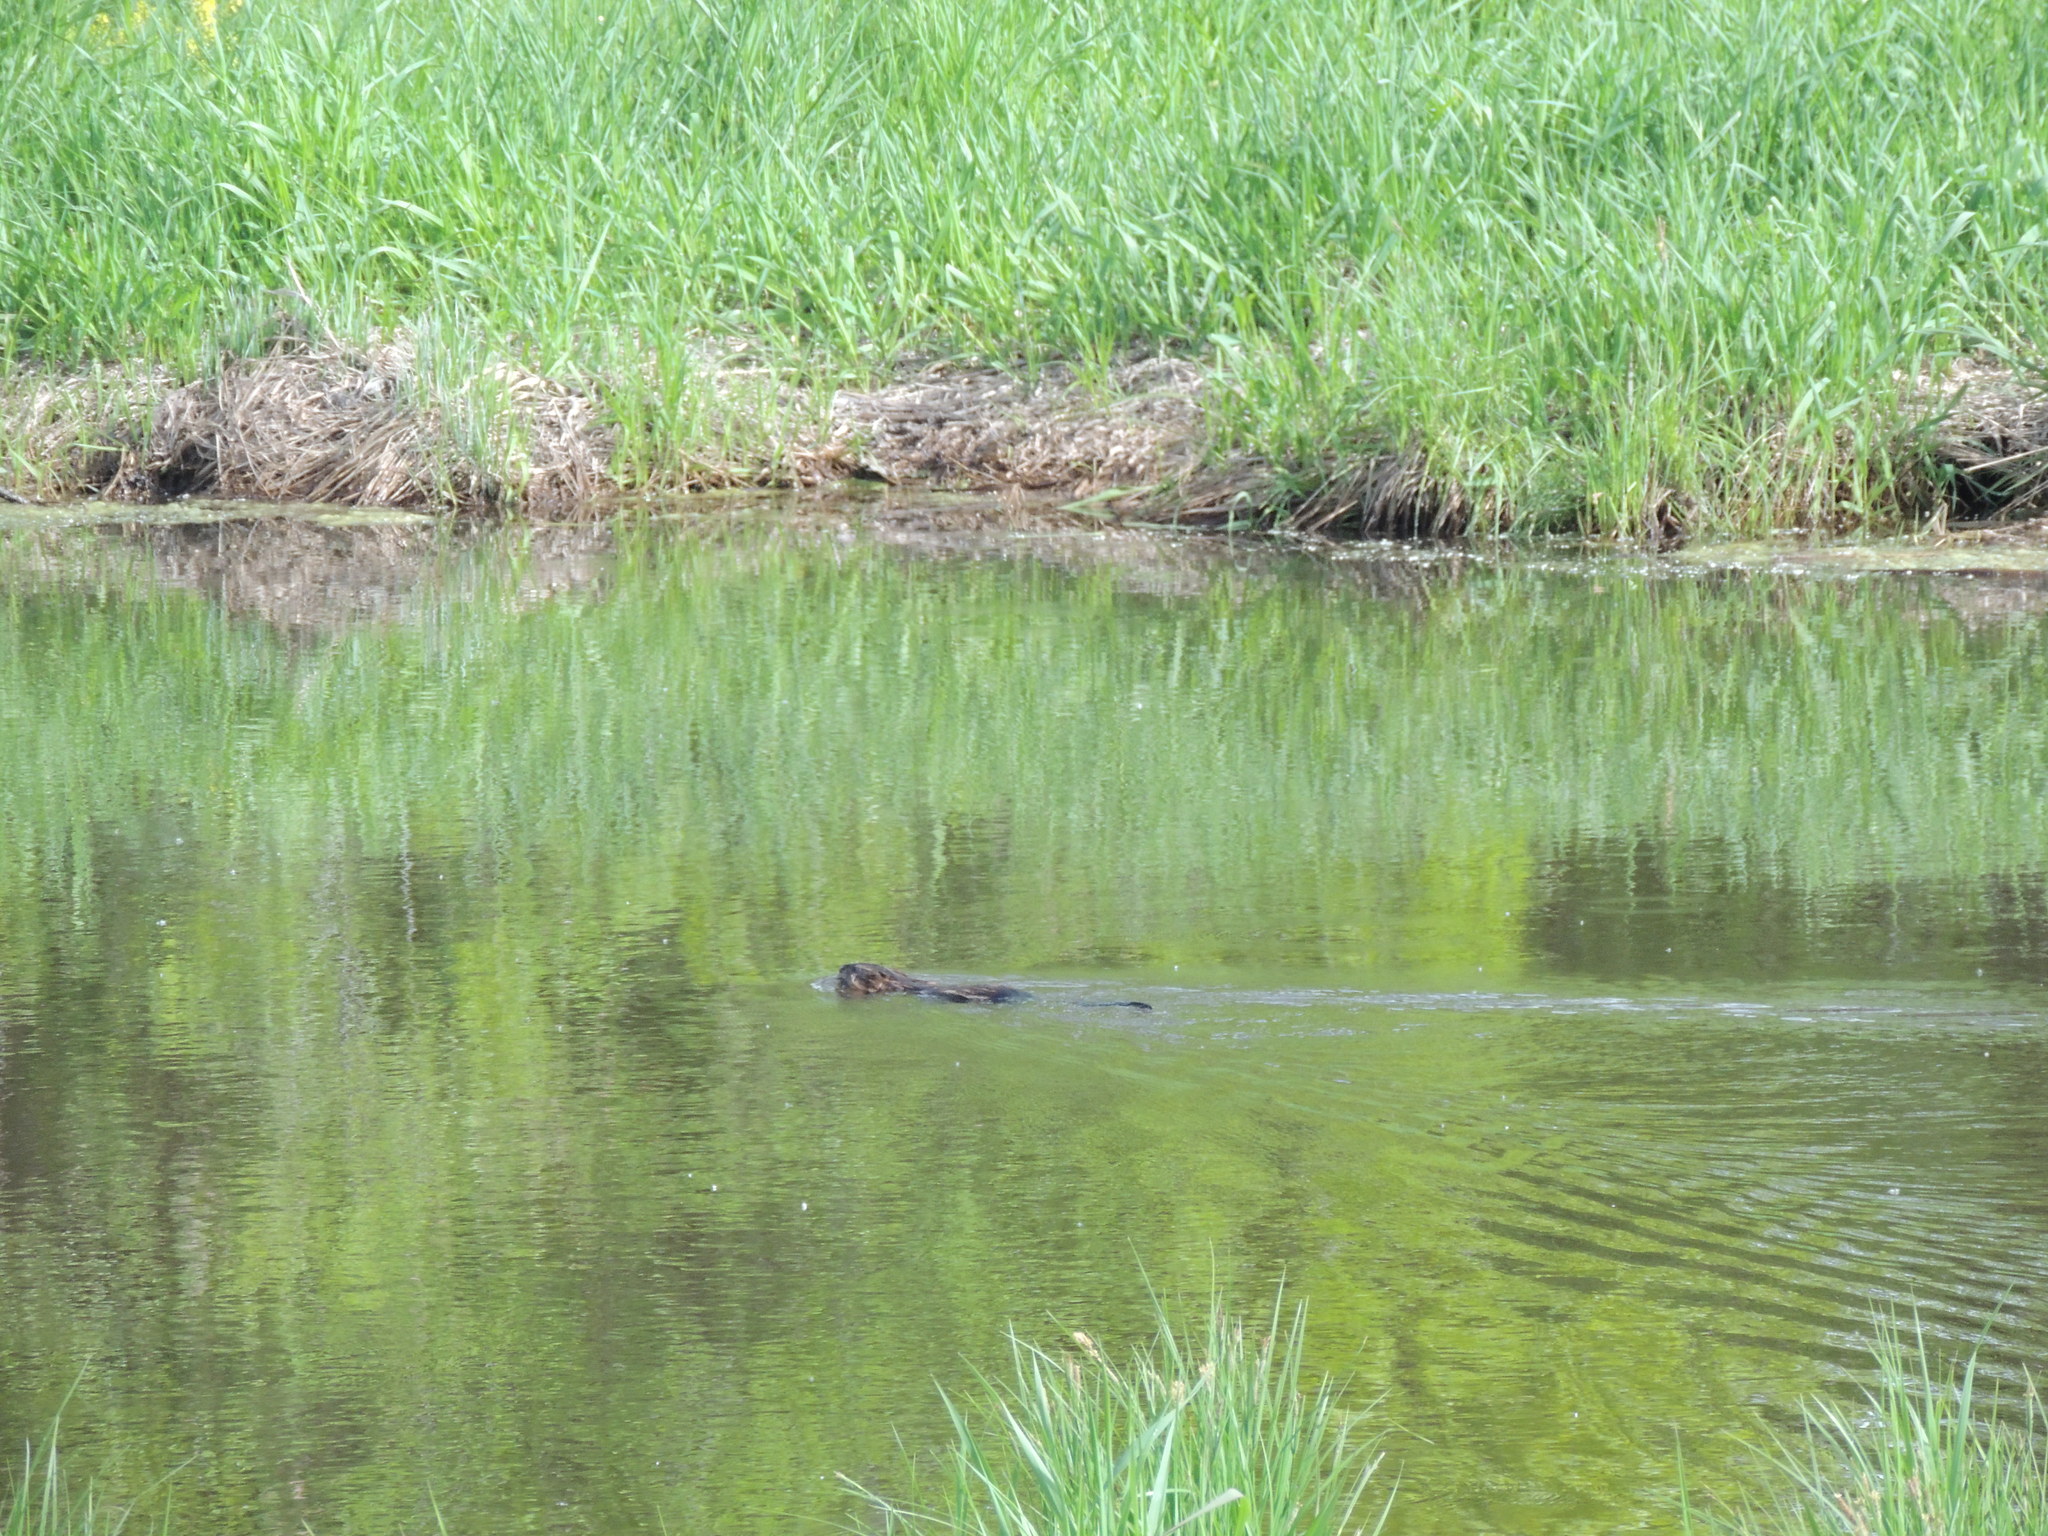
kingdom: Animalia
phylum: Chordata
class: Mammalia
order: Rodentia
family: Cricetidae
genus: Ondatra
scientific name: Ondatra zibethicus
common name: Muskrat
